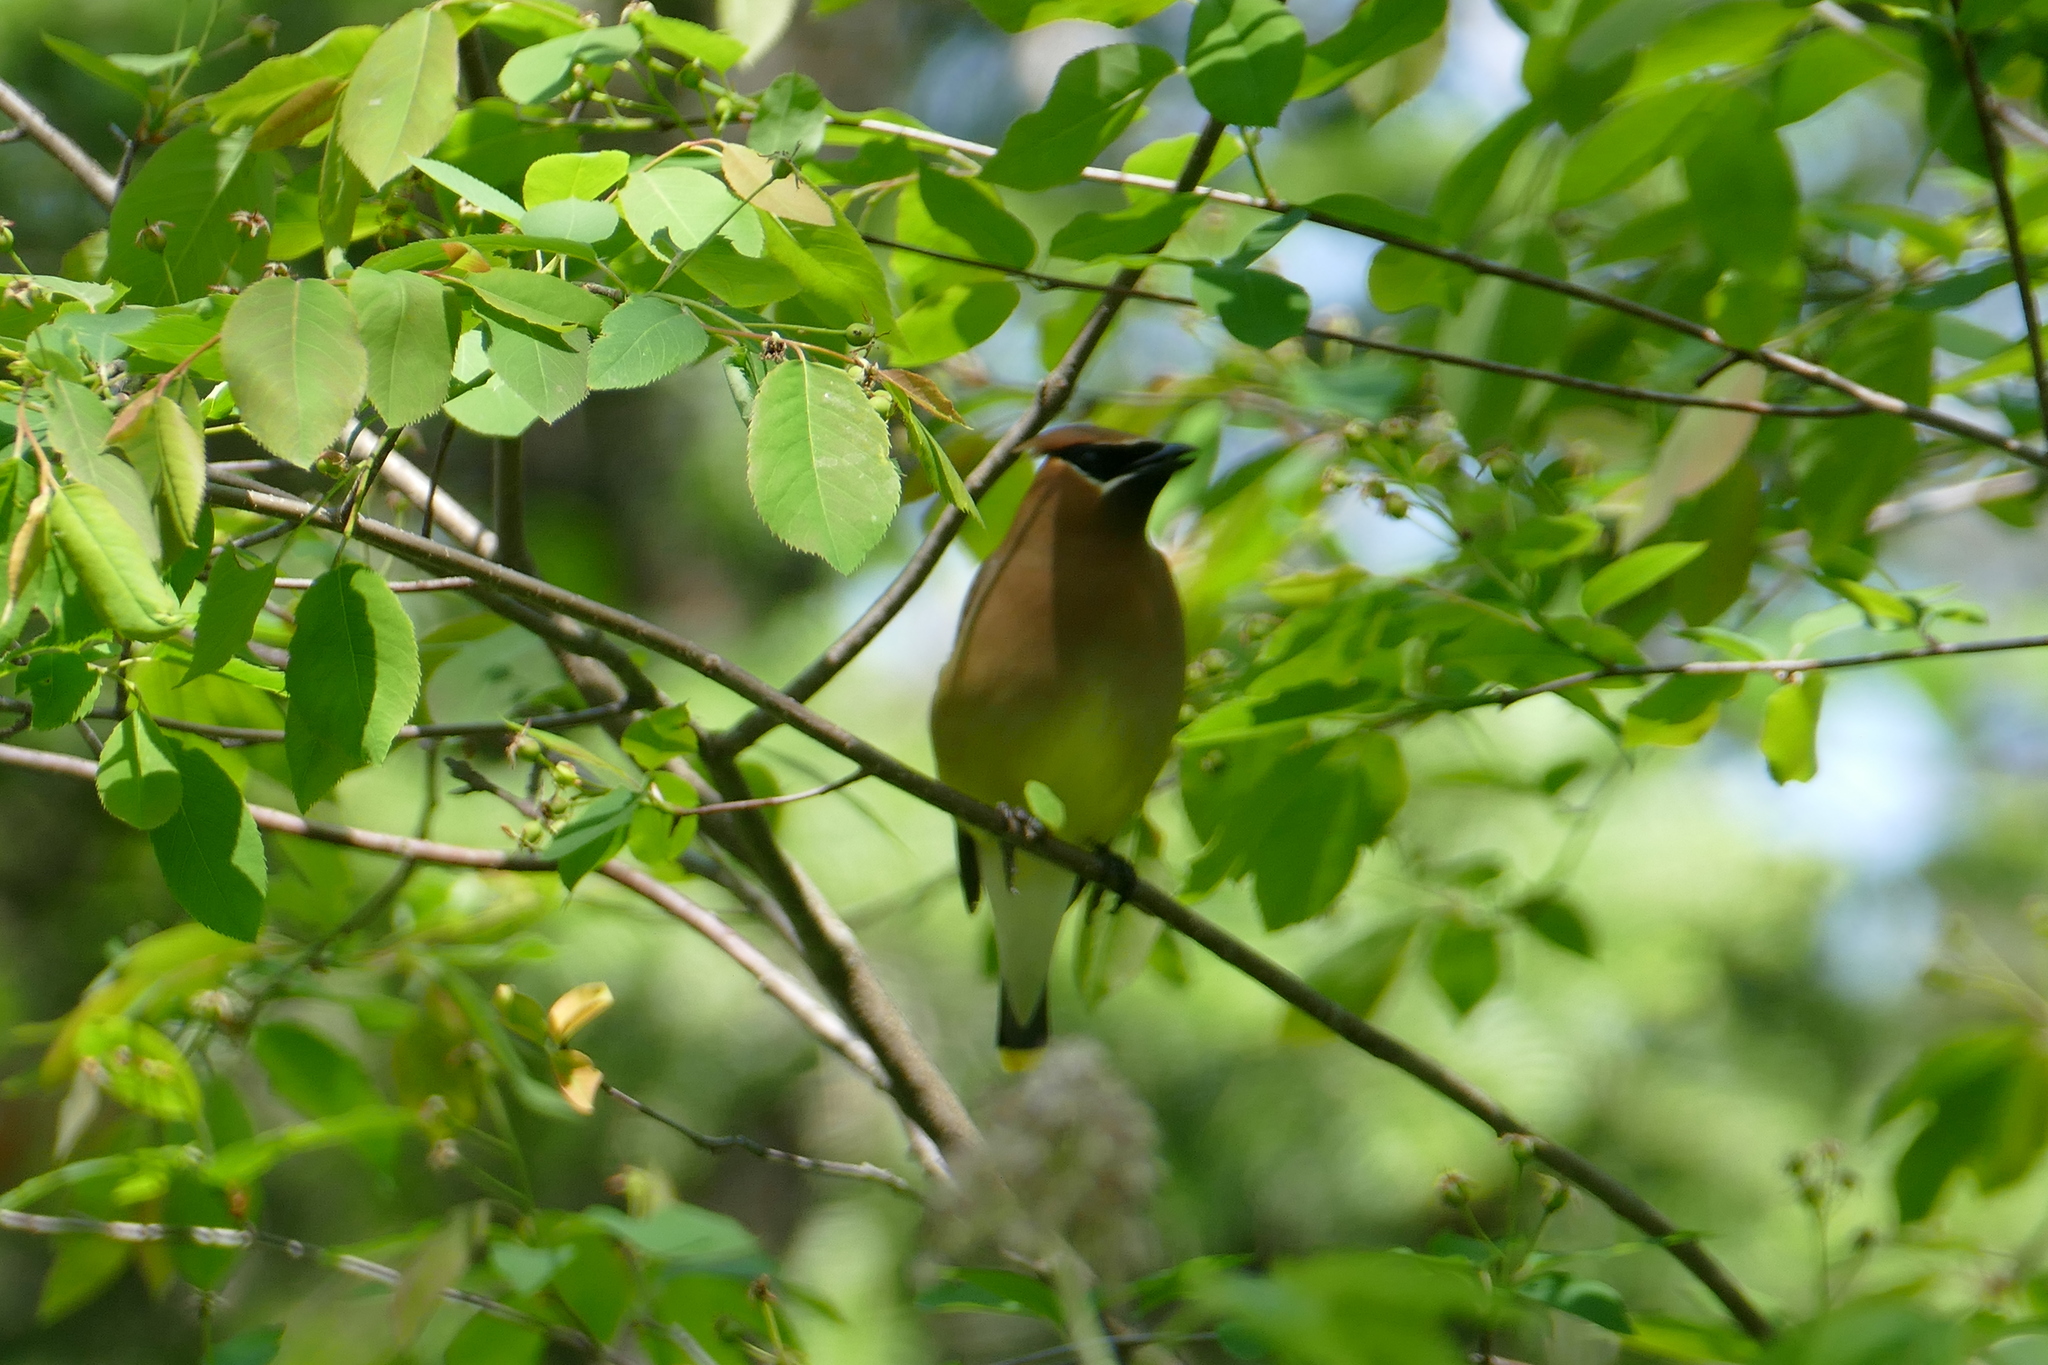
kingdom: Animalia
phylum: Chordata
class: Aves
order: Passeriformes
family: Bombycillidae
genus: Bombycilla
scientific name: Bombycilla cedrorum
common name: Cedar waxwing
